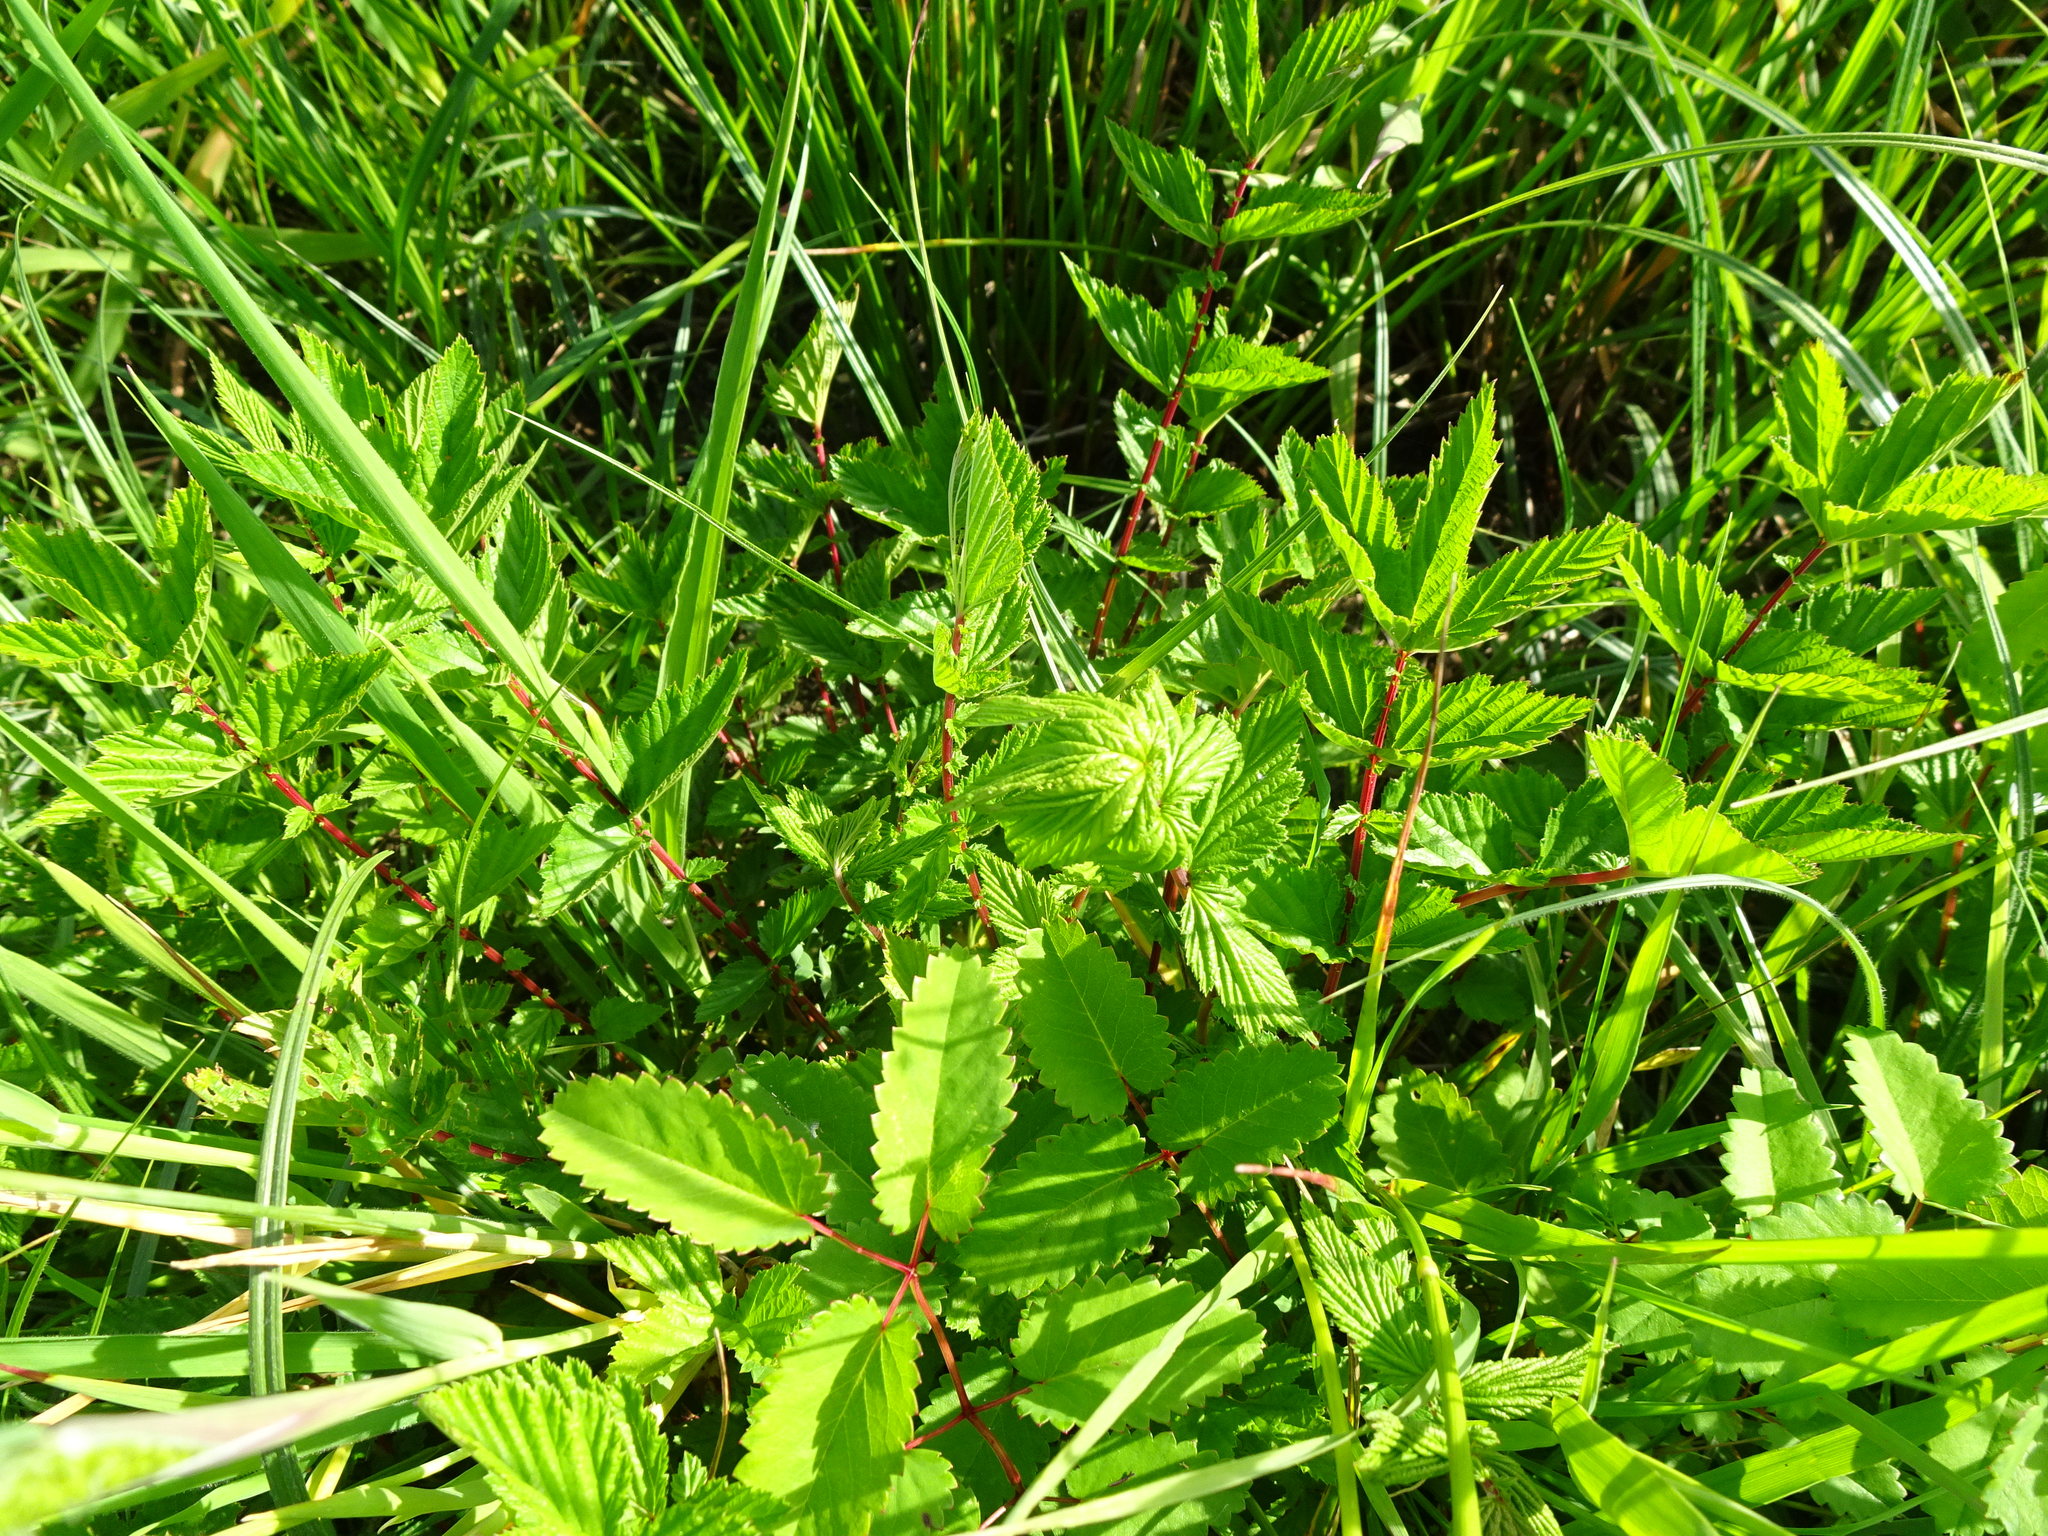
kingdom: Plantae
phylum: Tracheophyta
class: Magnoliopsida
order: Rosales
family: Rosaceae
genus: Filipendula
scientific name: Filipendula ulmaria
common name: Meadowsweet
